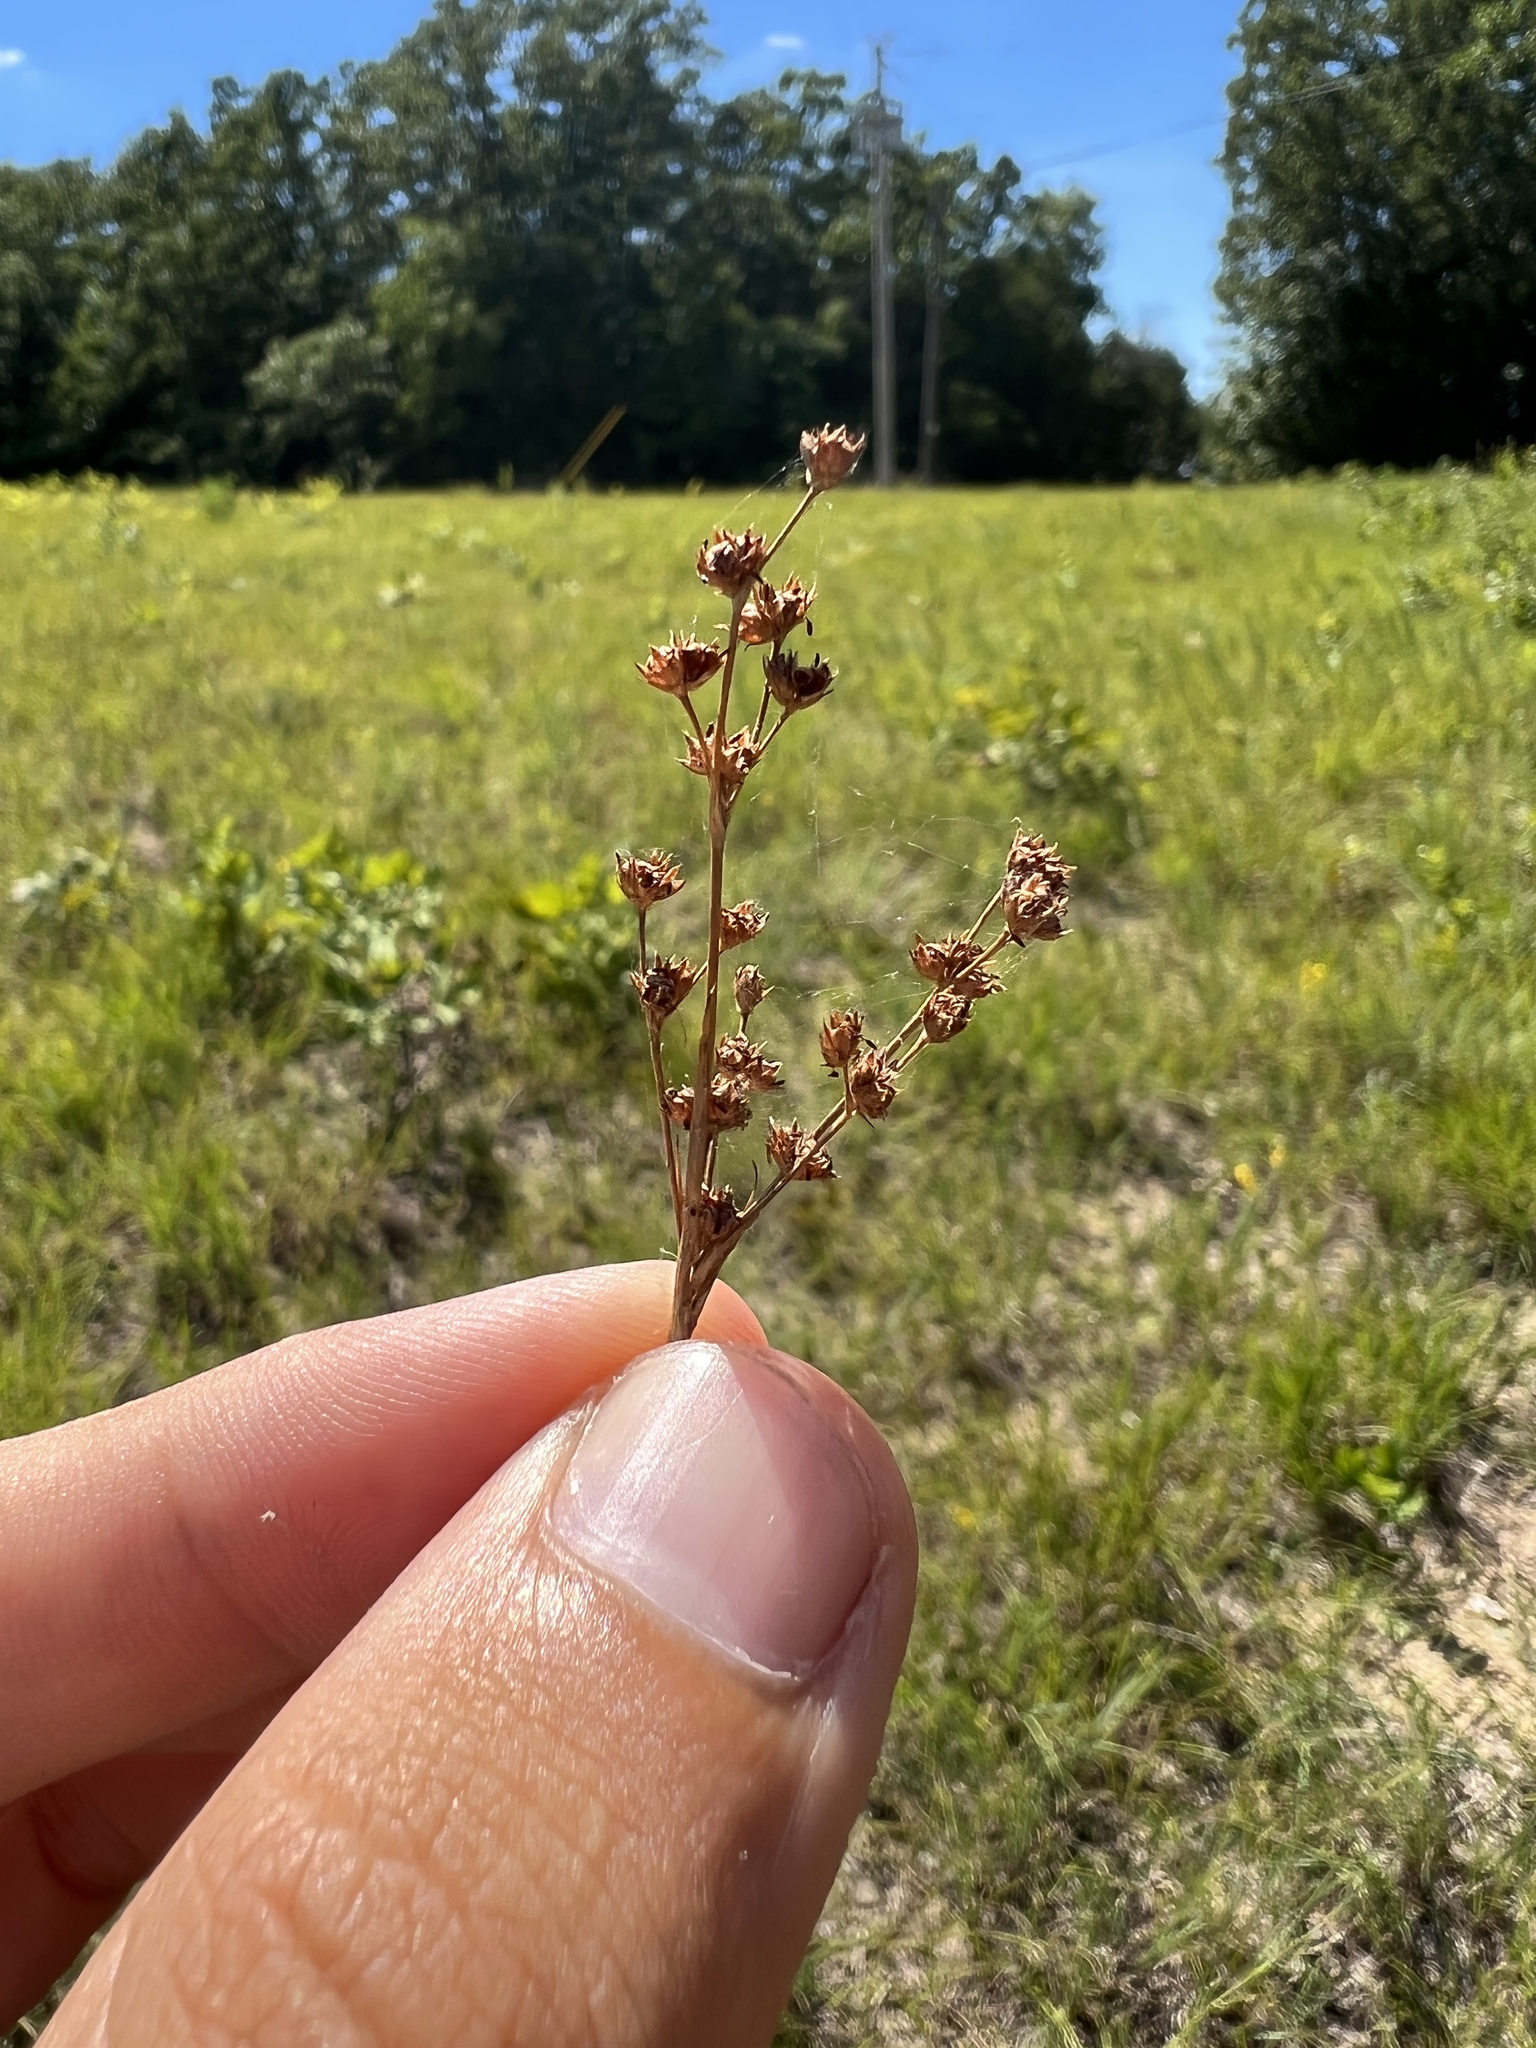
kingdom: Plantae
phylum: Tracheophyta
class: Liliopsida
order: Poales
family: Juncaceae
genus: Juncus
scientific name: Juncus marginatus
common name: Grass-leaf rush
